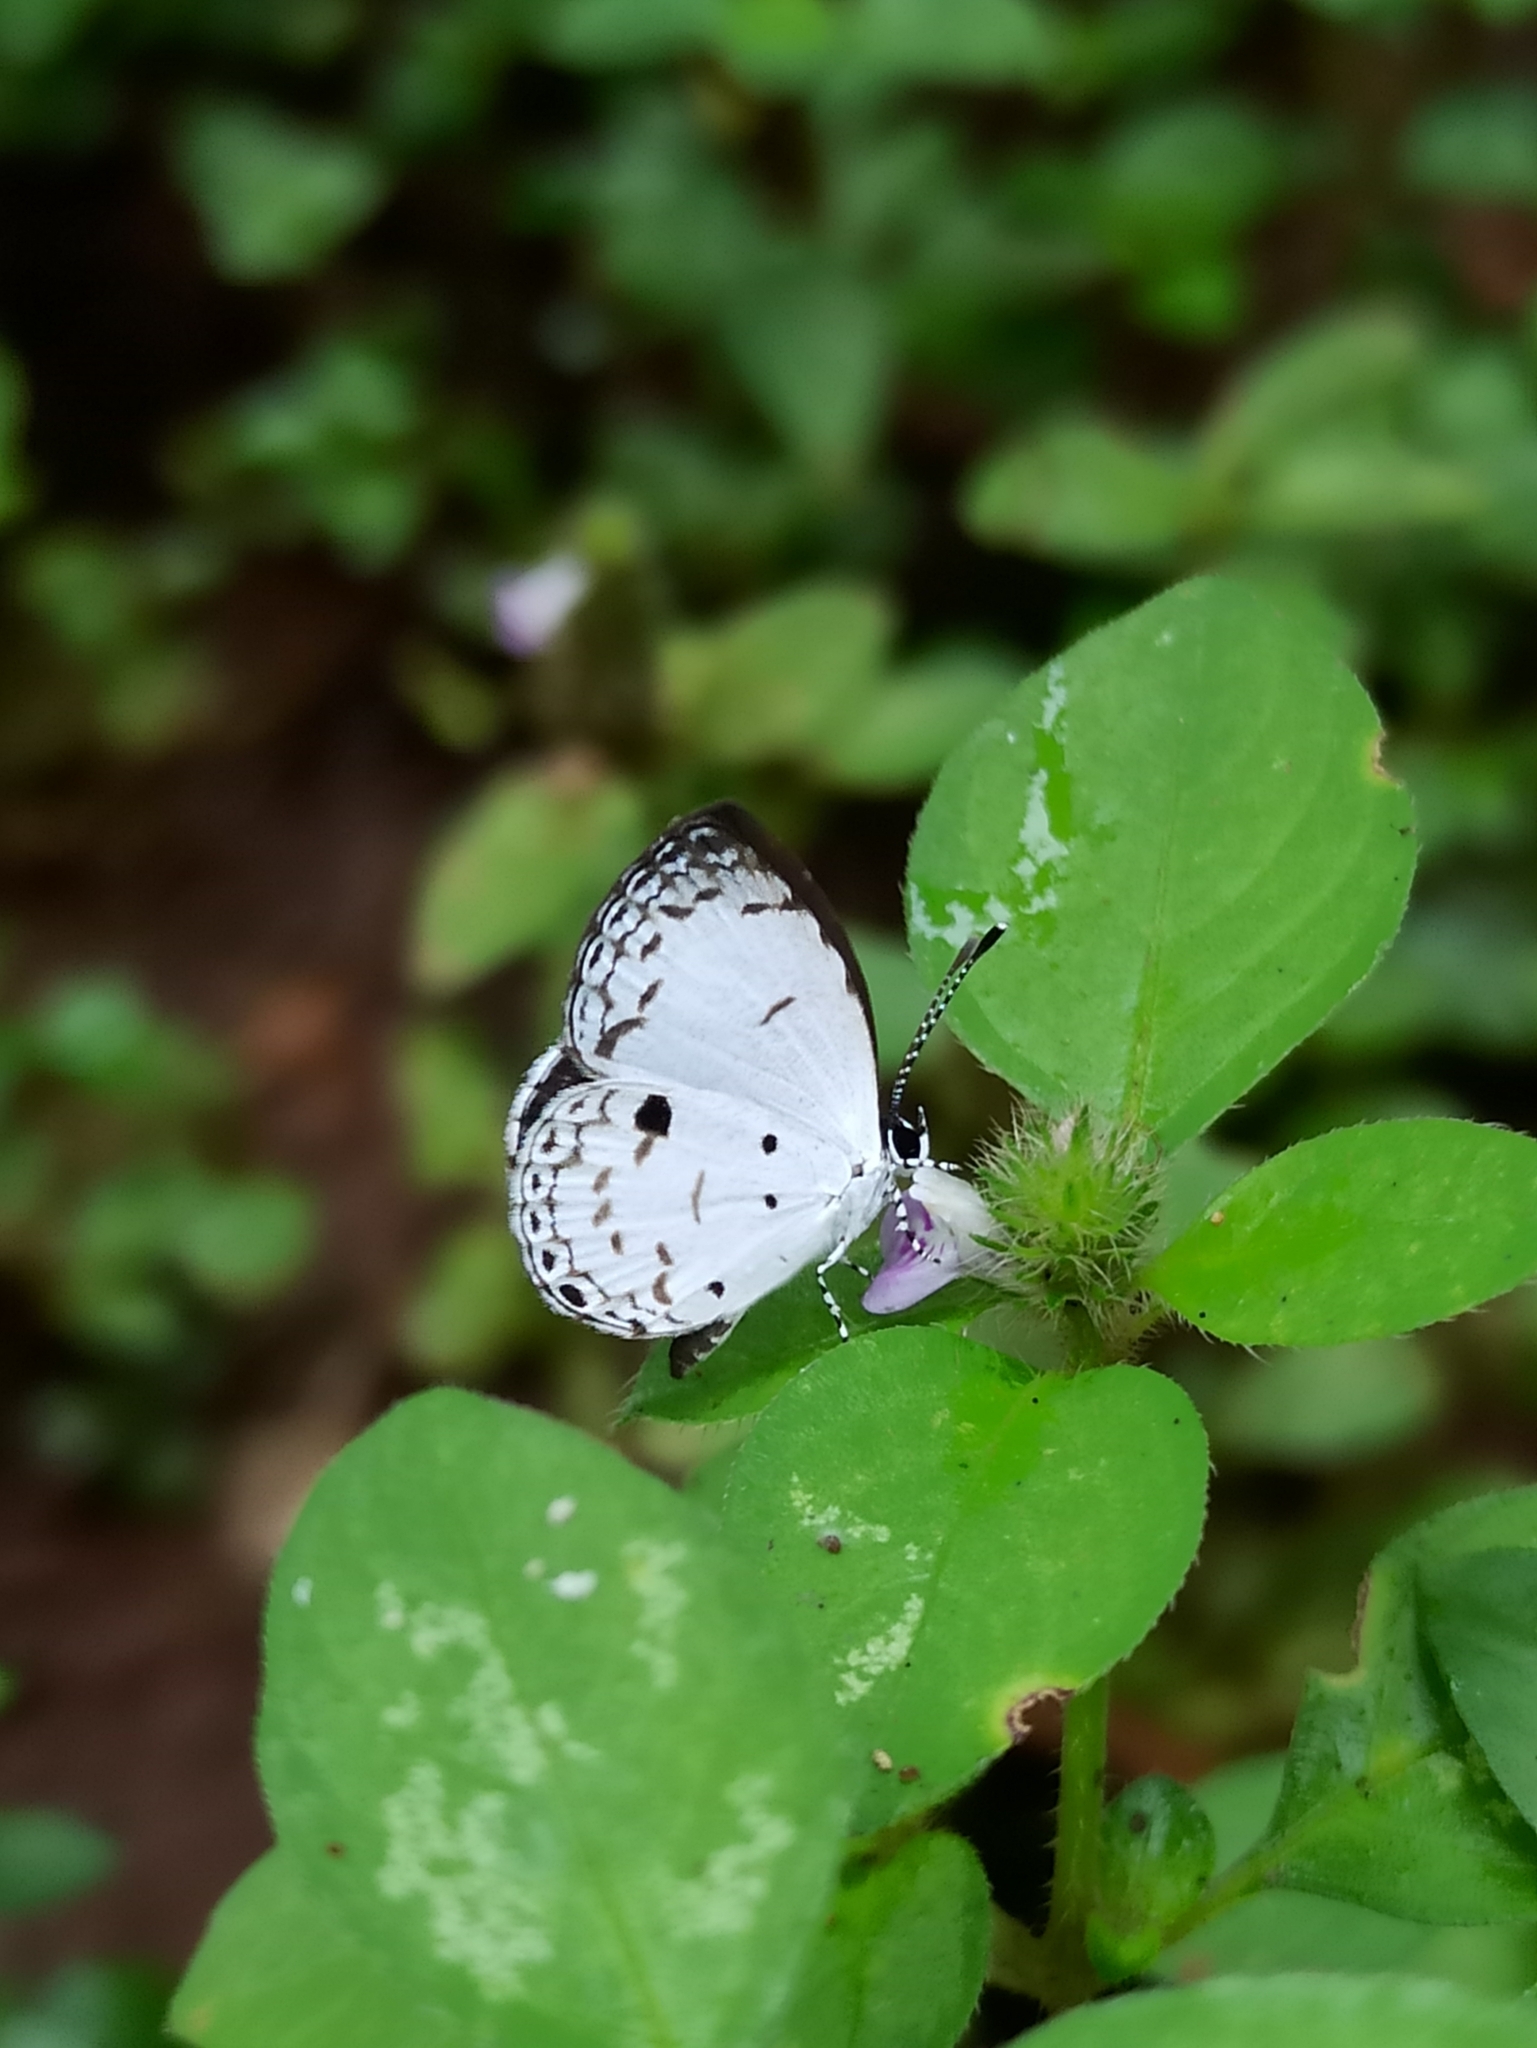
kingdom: Animalia
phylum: Arthropoda
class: Insecta
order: Lepidoptera
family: Lycaenidae
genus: Neopithecops
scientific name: Neopithecops zalmora
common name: Quaker
